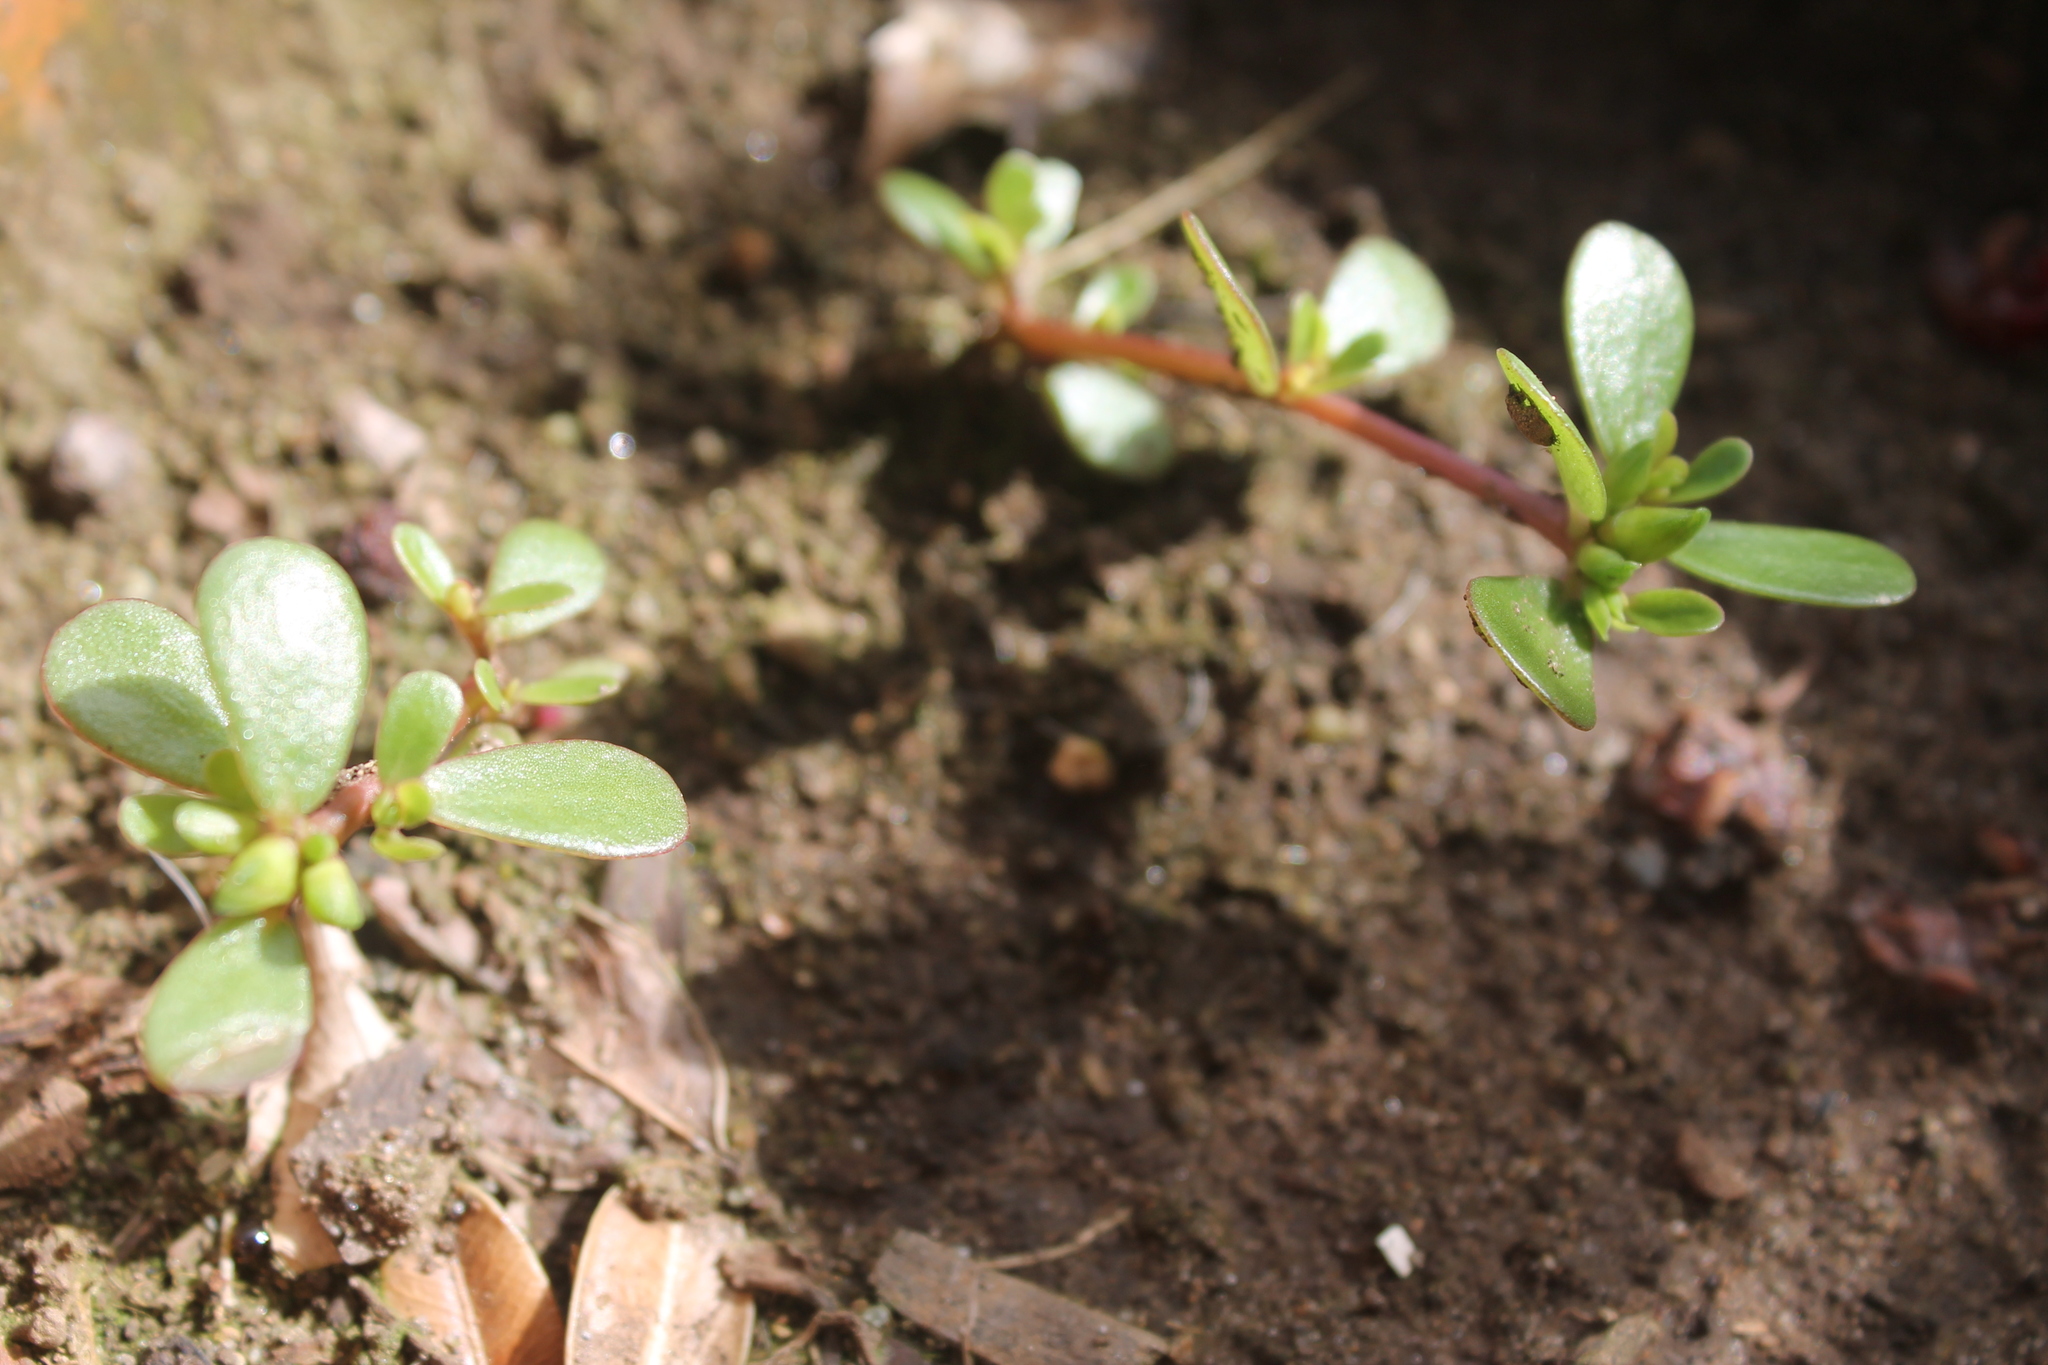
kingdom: Plantae
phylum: Tracheophyta
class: Magnoliopsida
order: Caryophyllales
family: Portulacaceae
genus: Portulaca
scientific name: Portulaca oleracea
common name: Common purslane
